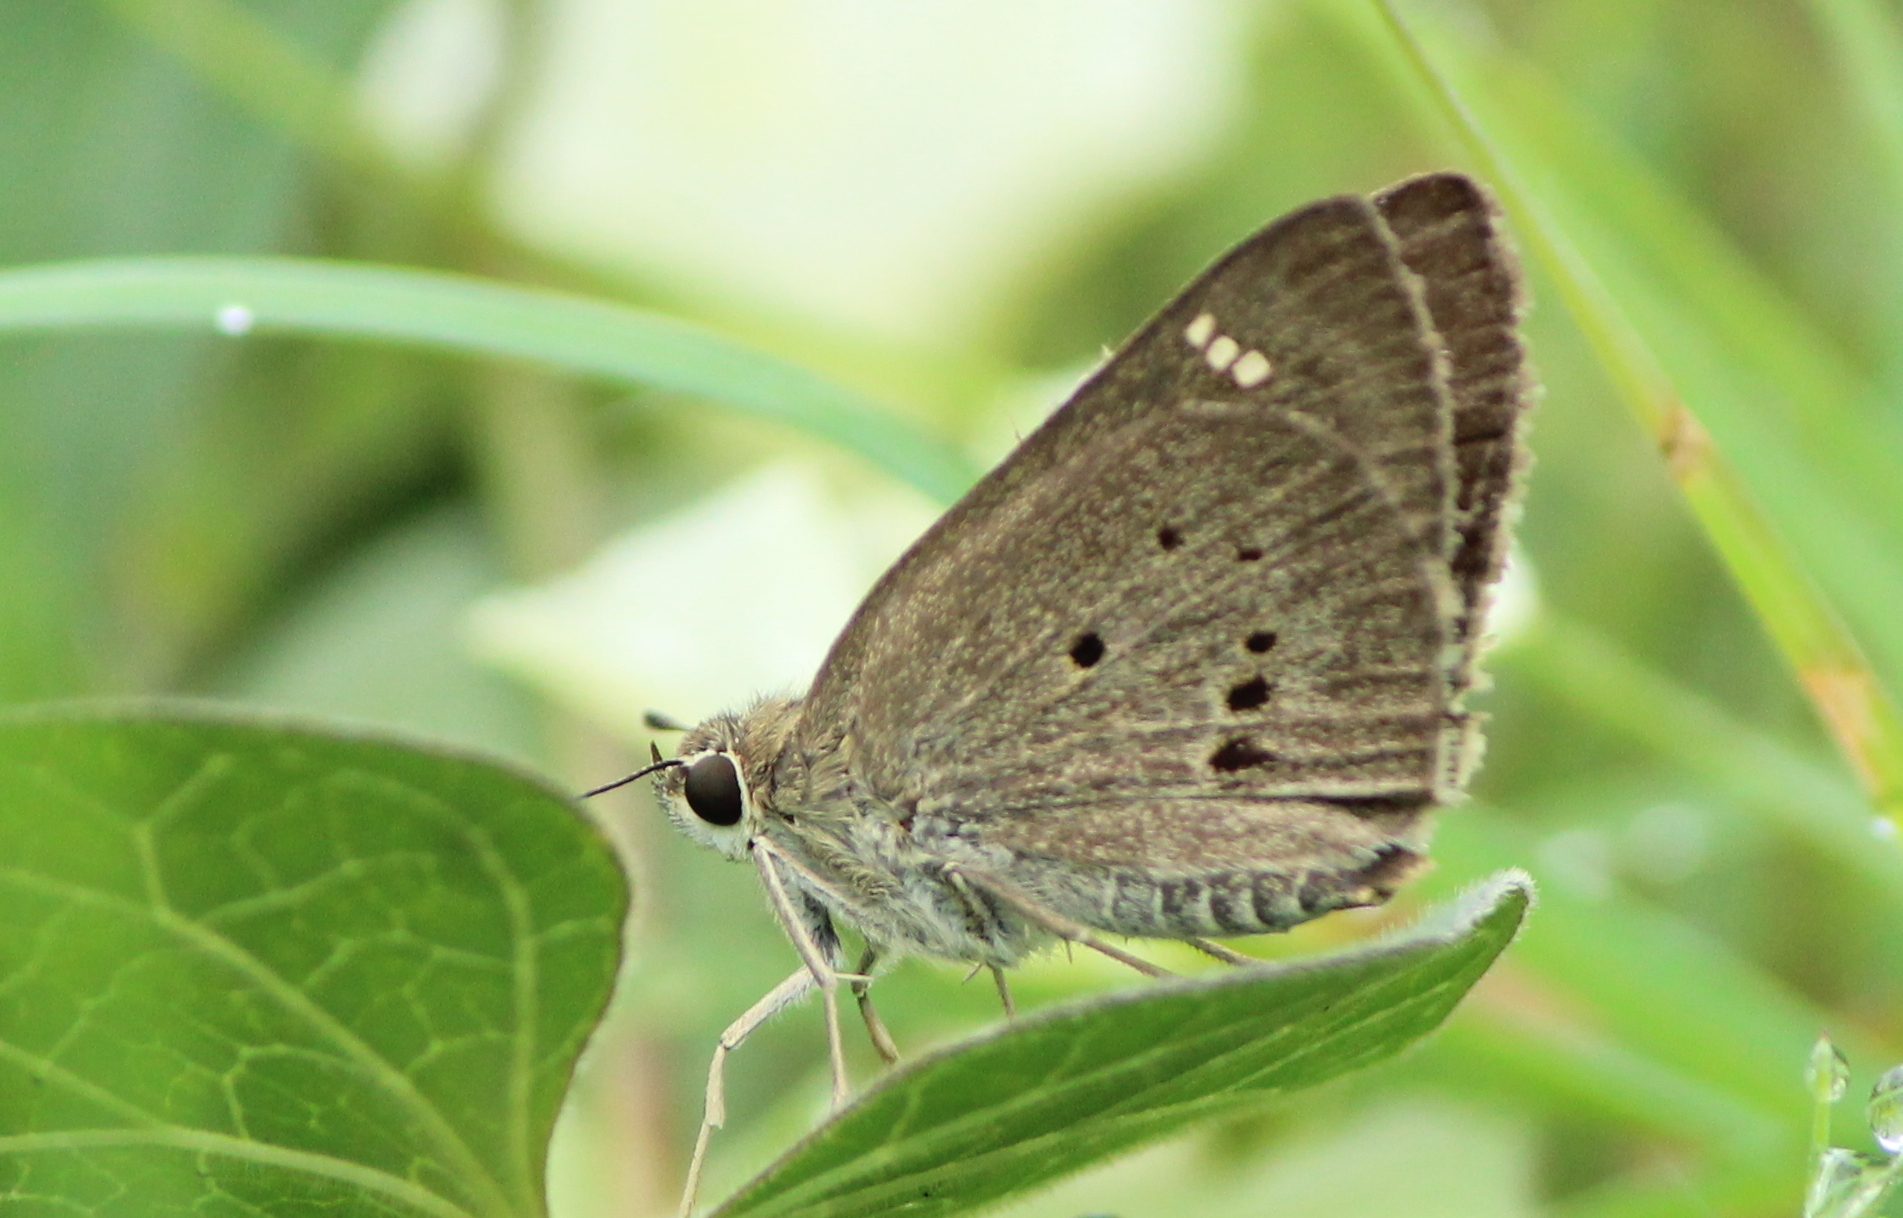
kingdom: Animalia
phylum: Arthropoda
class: Insecta
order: Lepidoptera
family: Hesperiidae
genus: Suastus
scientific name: Suastus gremius
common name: Indian palm bob
